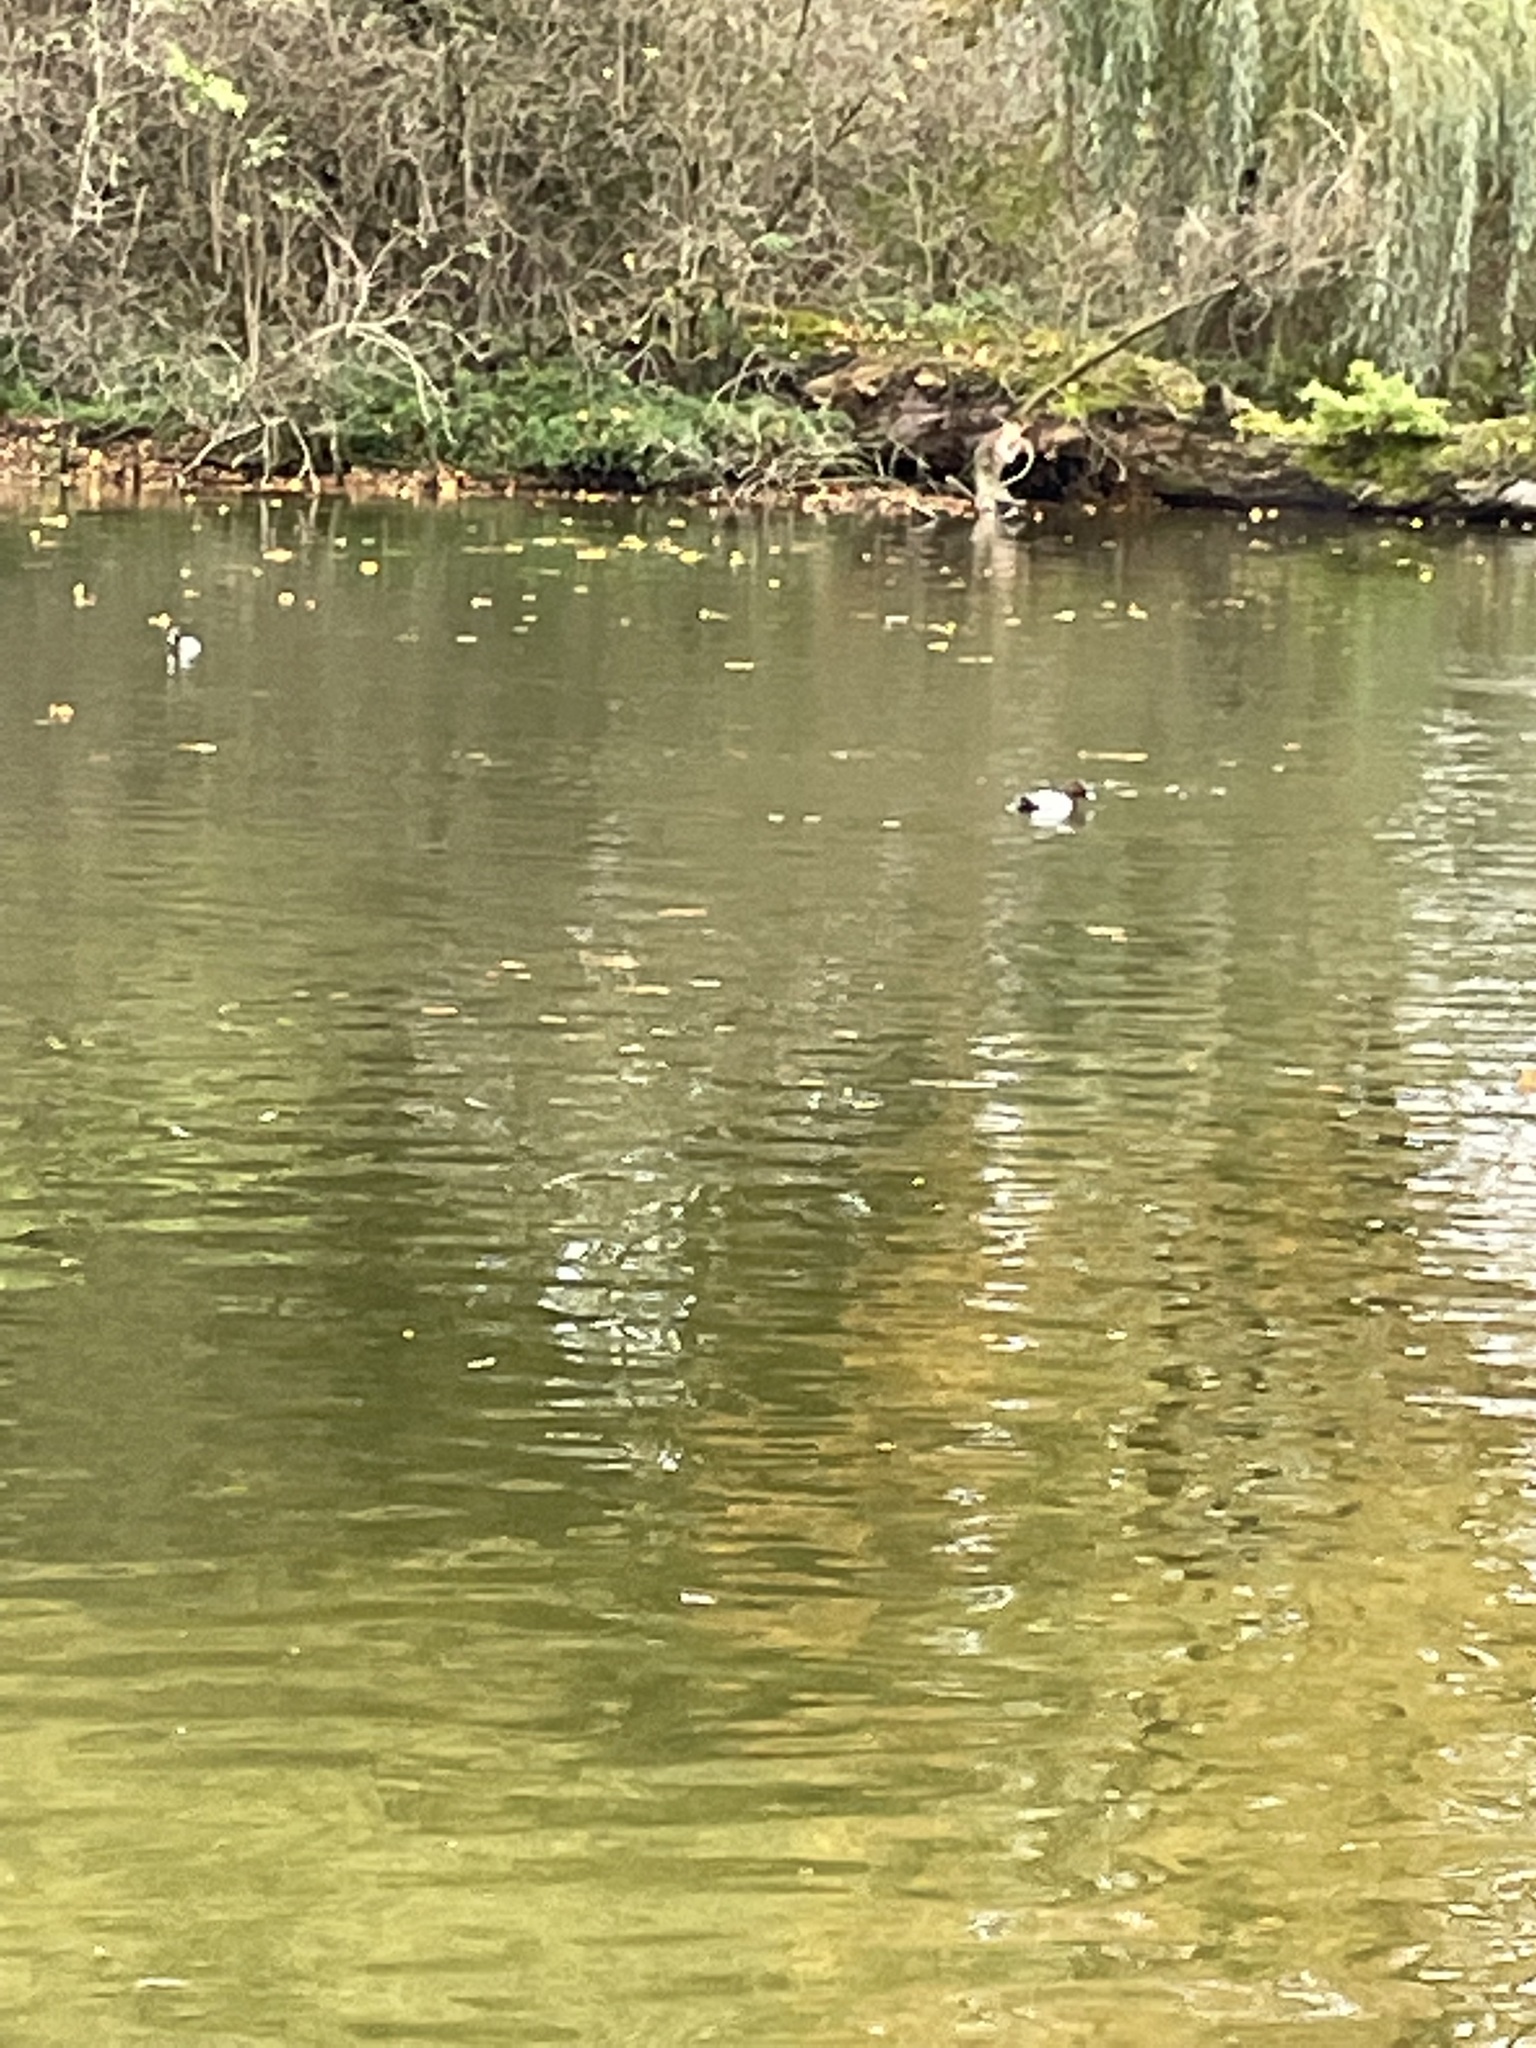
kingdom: Animalia
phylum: Chordata
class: Aves
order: Anseriformes
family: Anatidae
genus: Aythya
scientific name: Aythya ferina
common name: Common pochard
